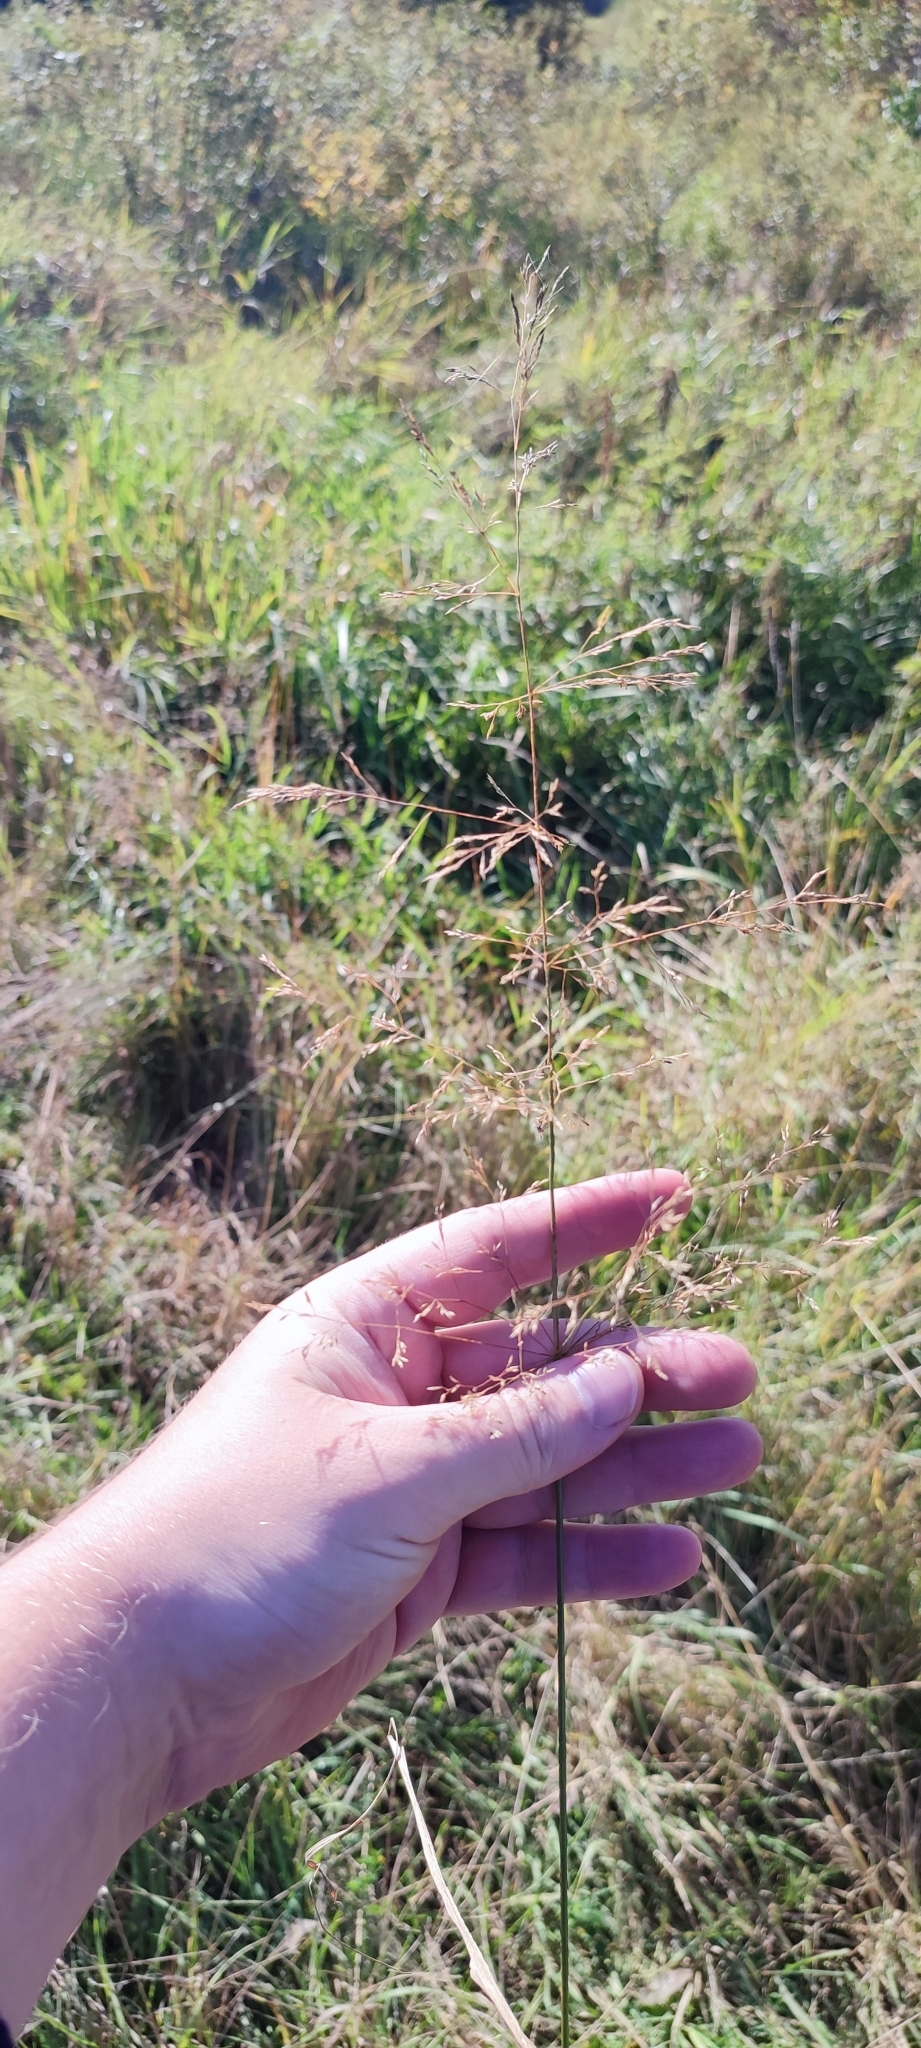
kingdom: Plantae
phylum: Tracheophyta
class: Liliopsida
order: Poales
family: Poaceae
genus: Agrostis
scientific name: Agrostis gigantea
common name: Black bent
